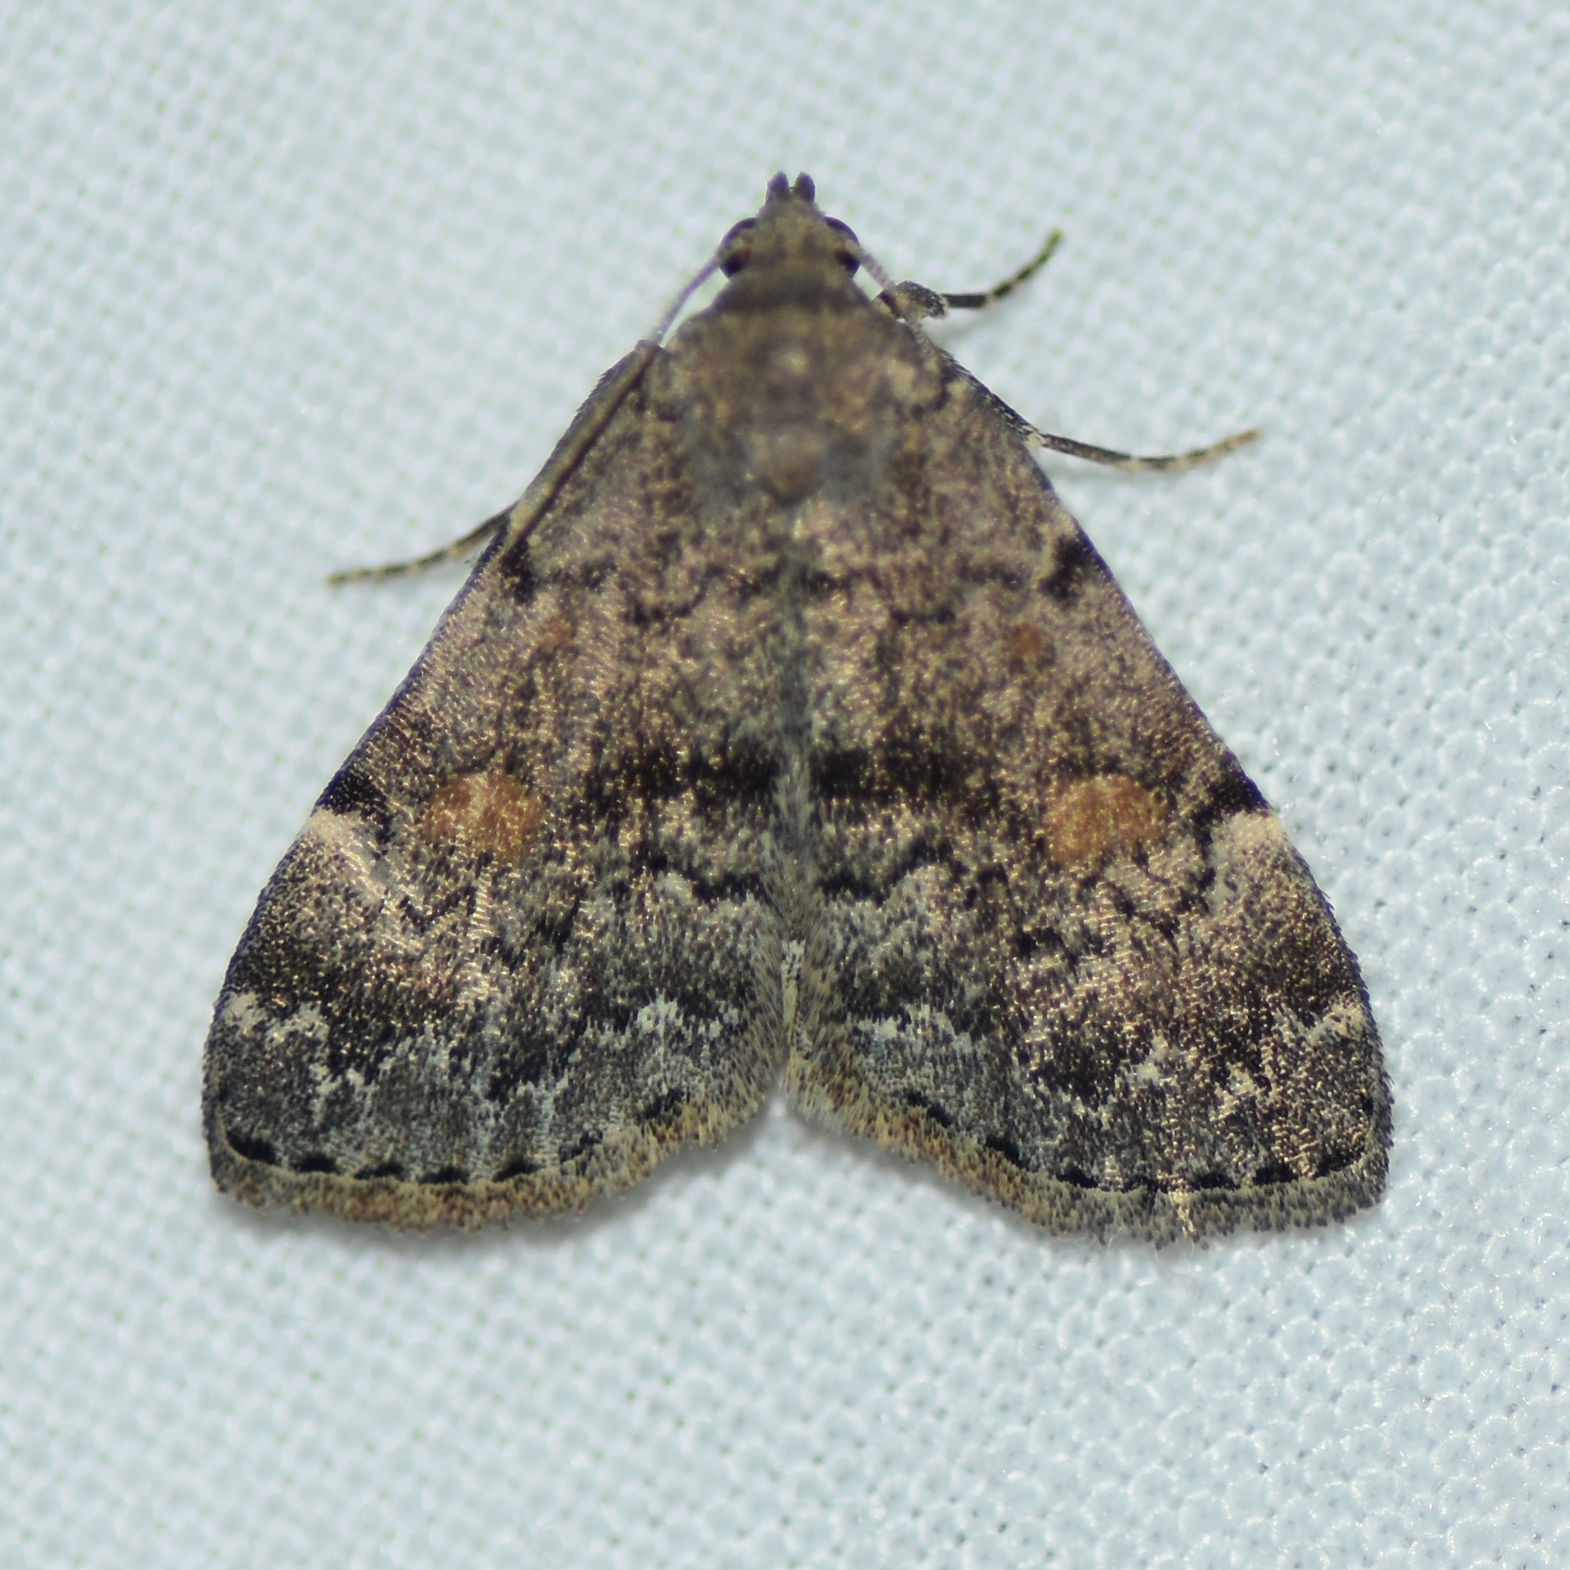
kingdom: Animalia
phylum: Arthropoda
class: Insecta
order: Lepidoptera
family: Erebidae
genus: Idia
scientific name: Idia americalis
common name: American idia moth
